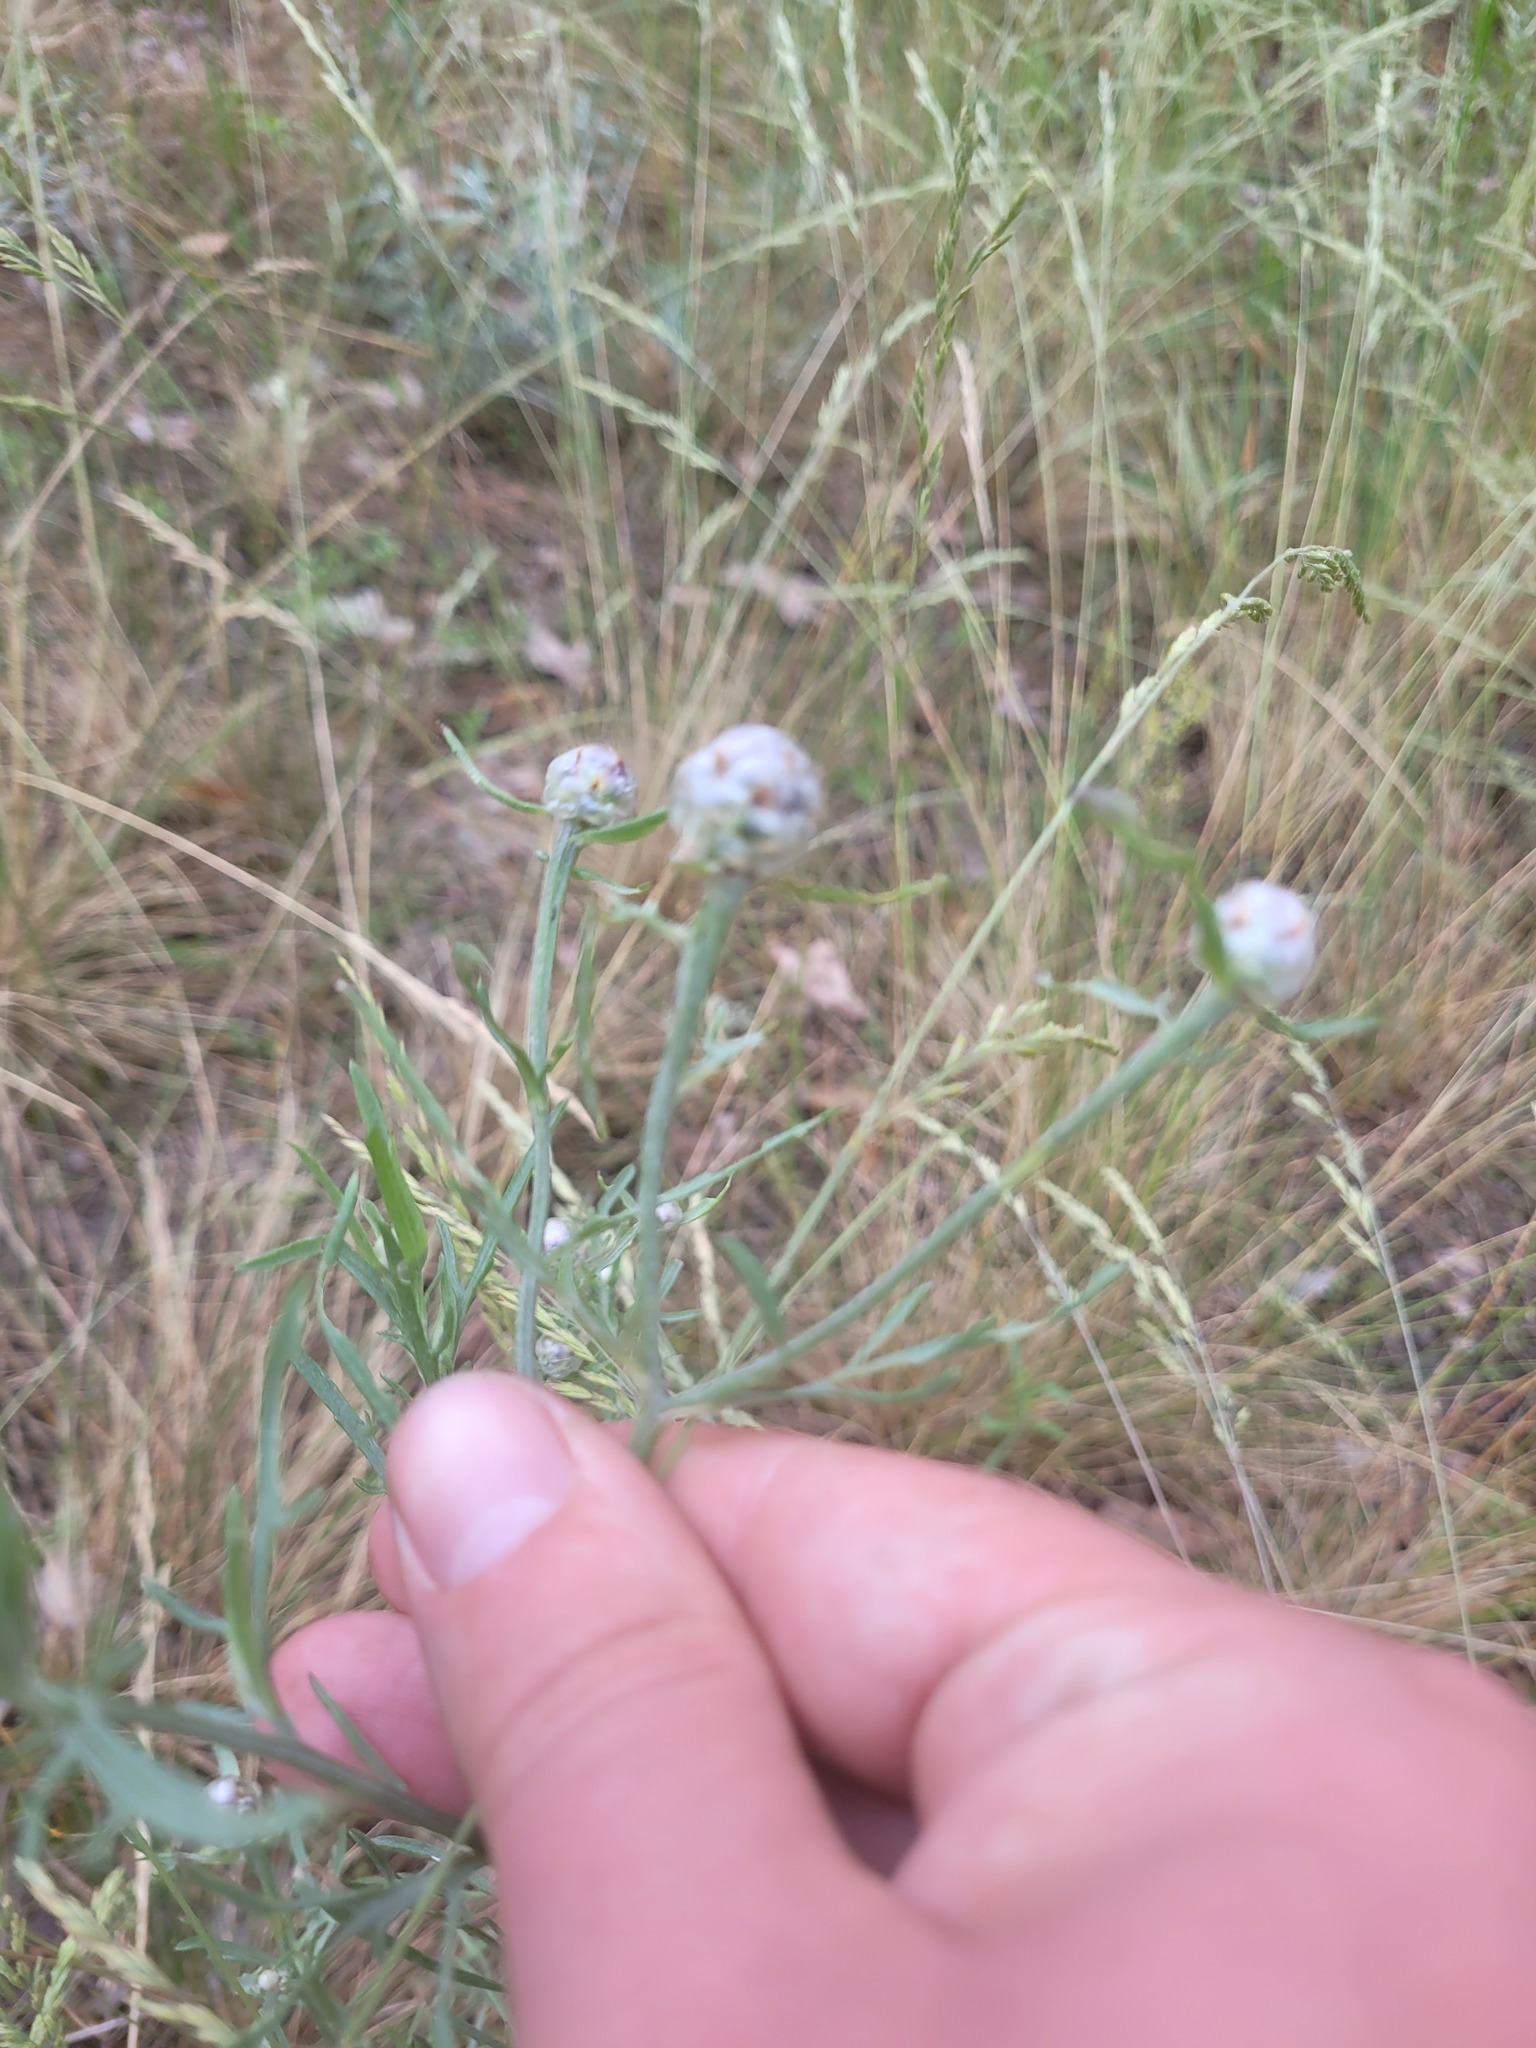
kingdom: Plantae
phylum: Tracheophyta
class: Magnoliopsida
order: Asterales
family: Asteraceae
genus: Centaurea
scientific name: Centaurea pineticola
